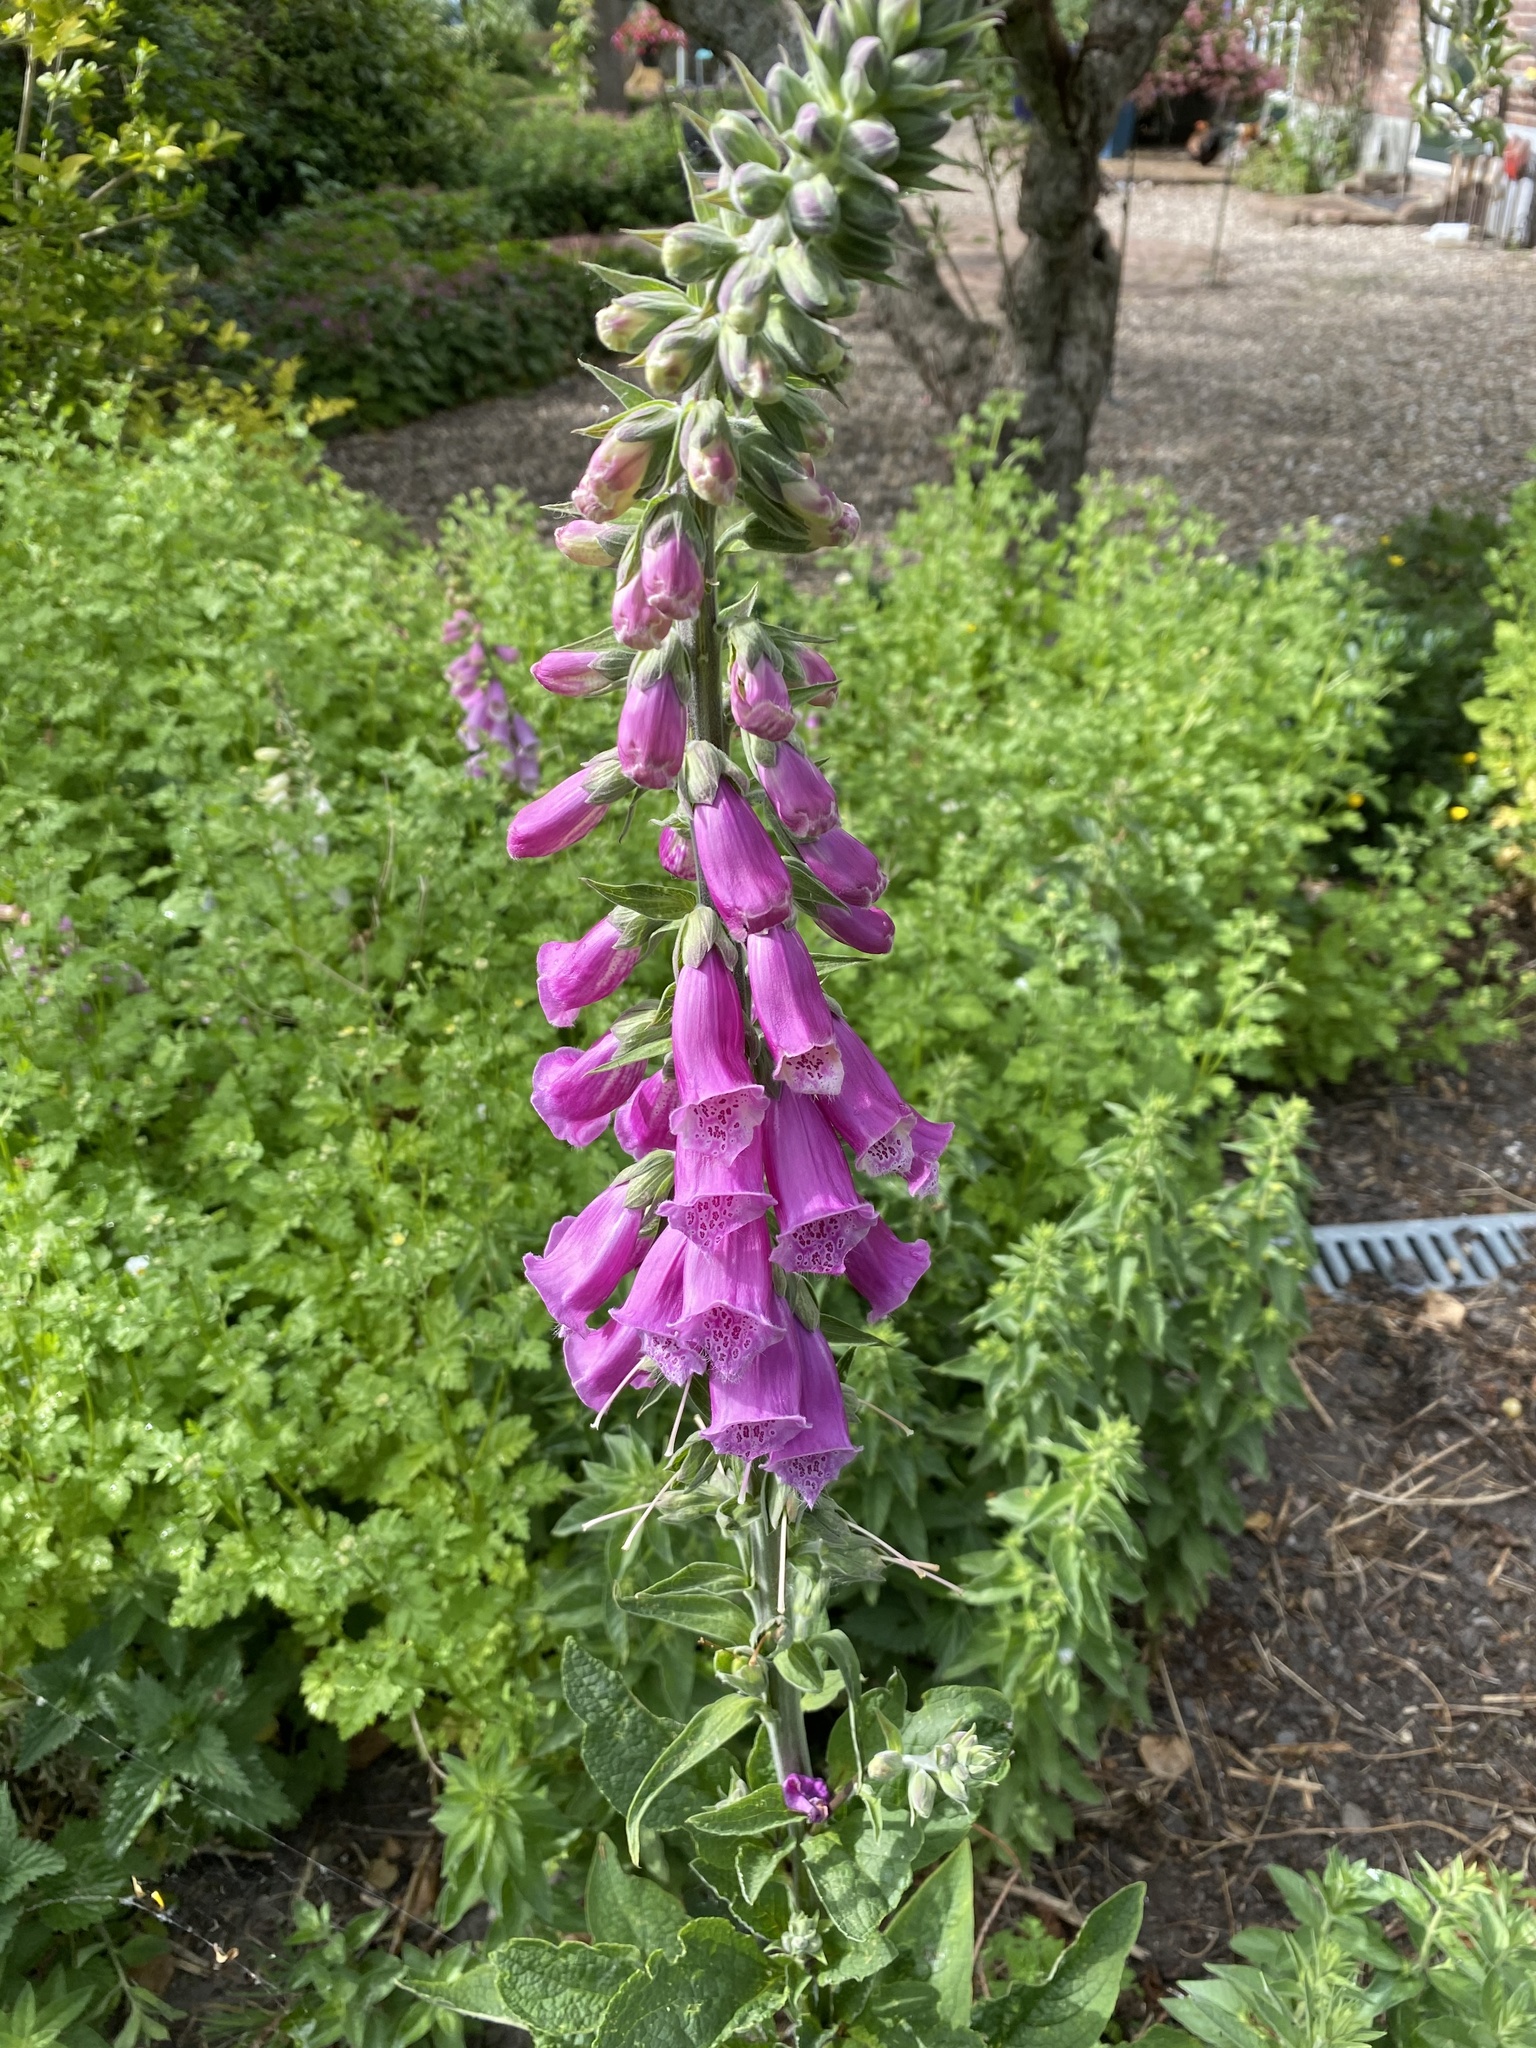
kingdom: Plantae
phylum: Tracheophyta
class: Magnoliopsida
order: Lamiales
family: Plantaginaceae
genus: Digitalis
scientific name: Digitalis purpurea
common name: Foxglove
